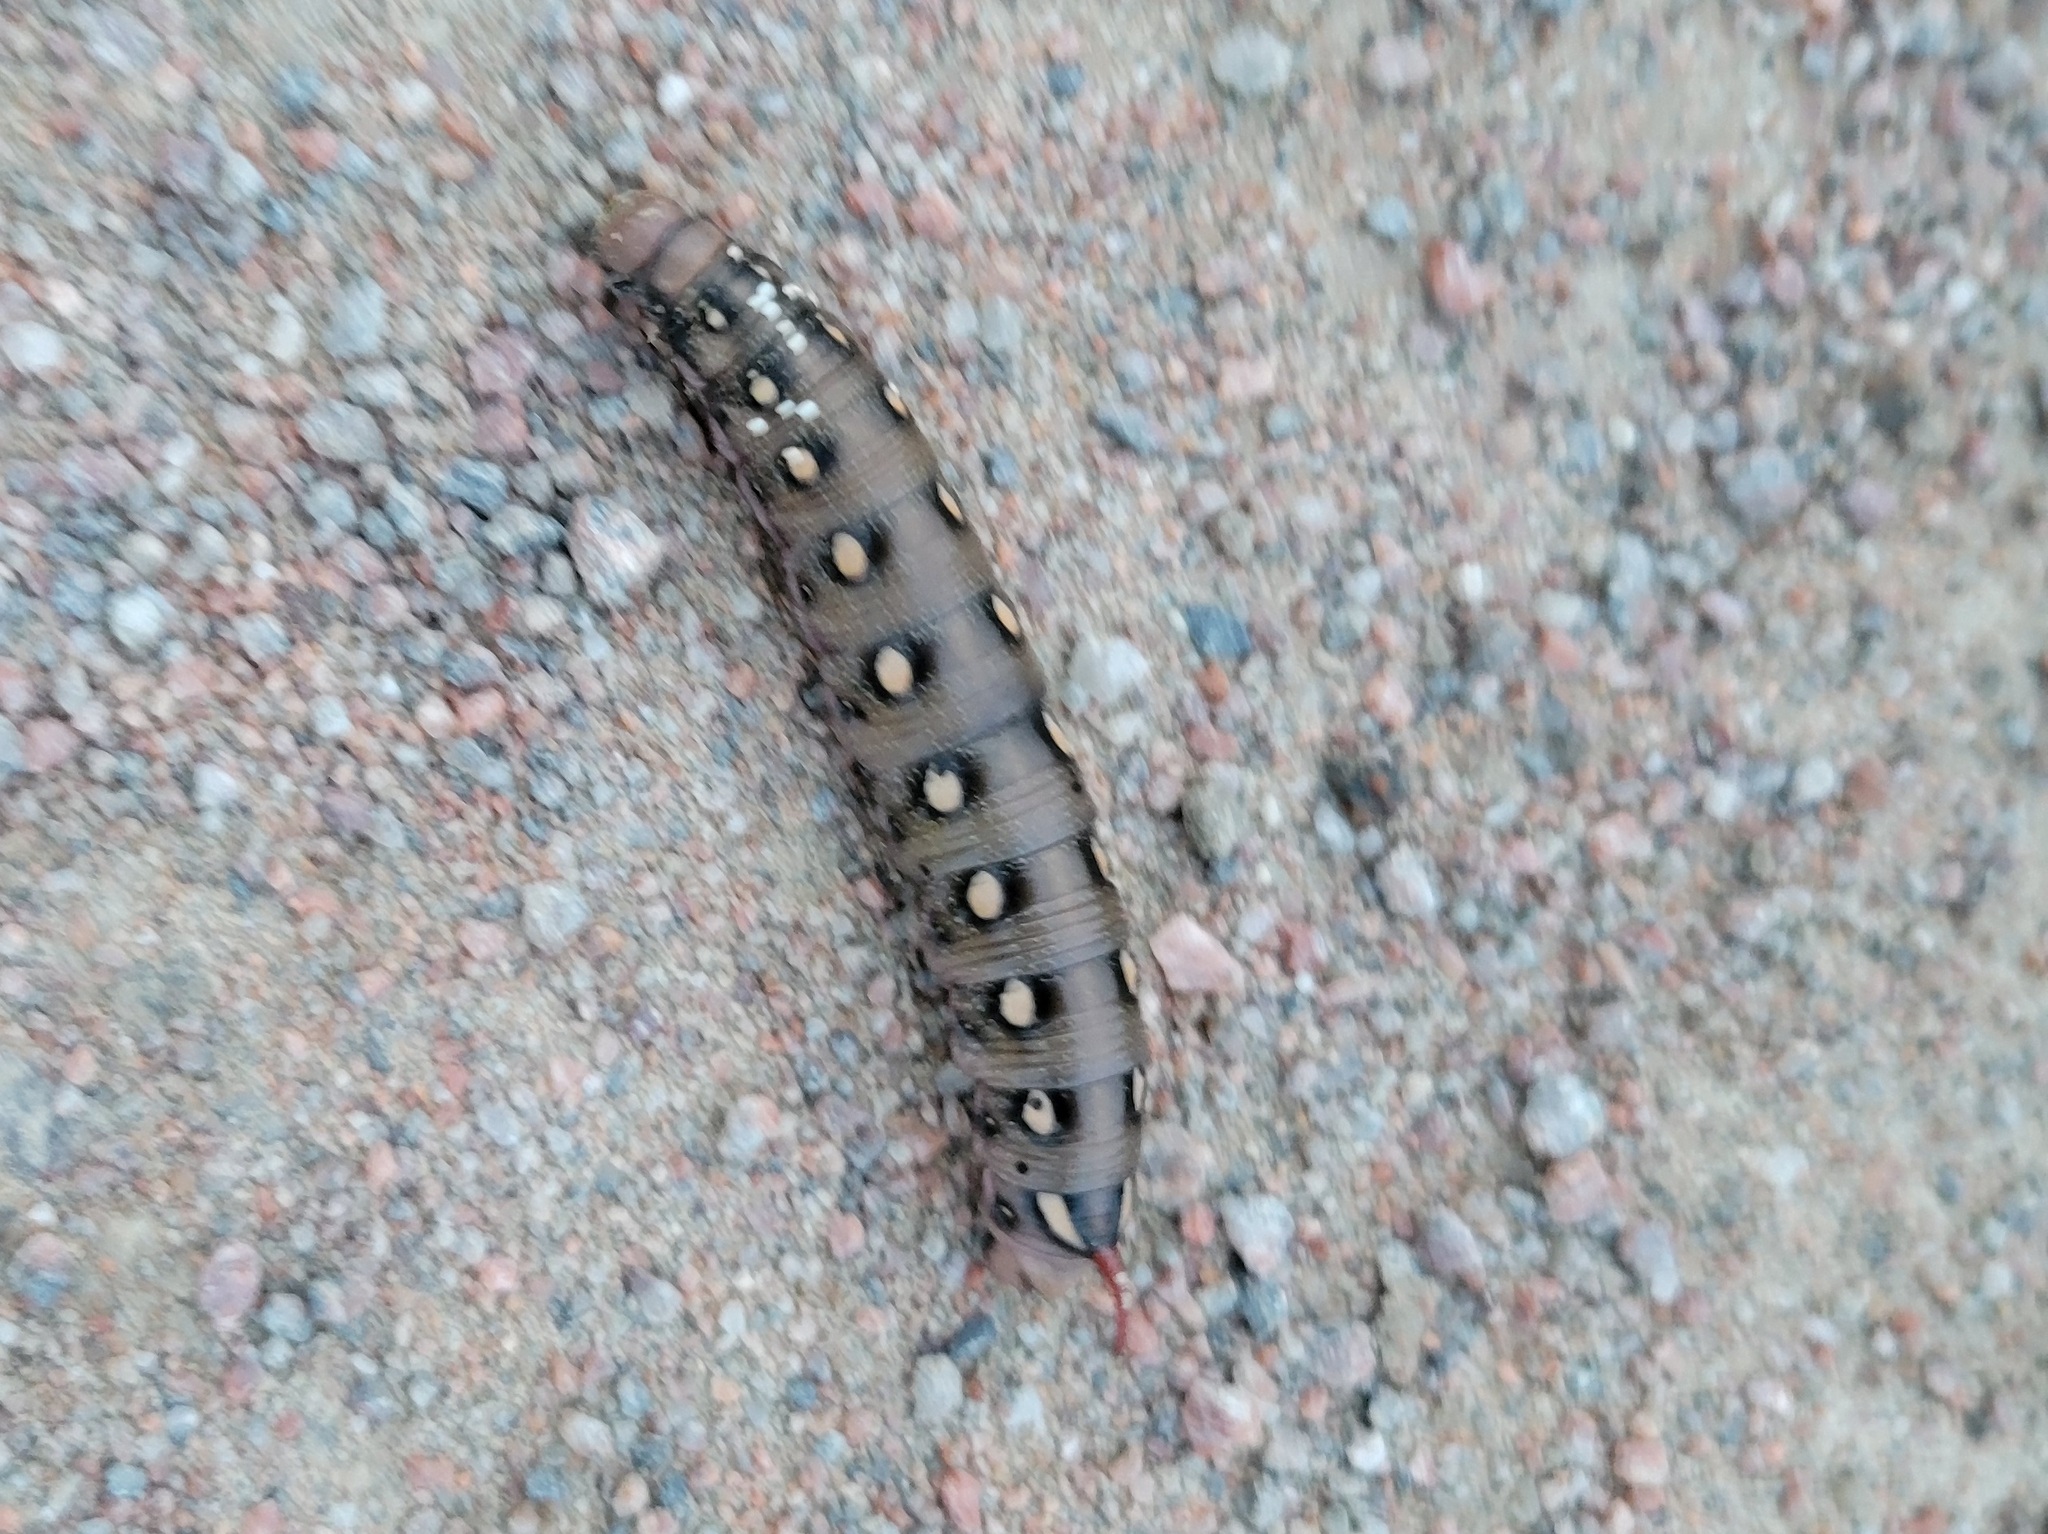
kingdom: Animalia
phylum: Arthropoda
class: Insecta
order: Lepidoptera
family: Sphingidae
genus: Hyles
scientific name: Hyles gallii
